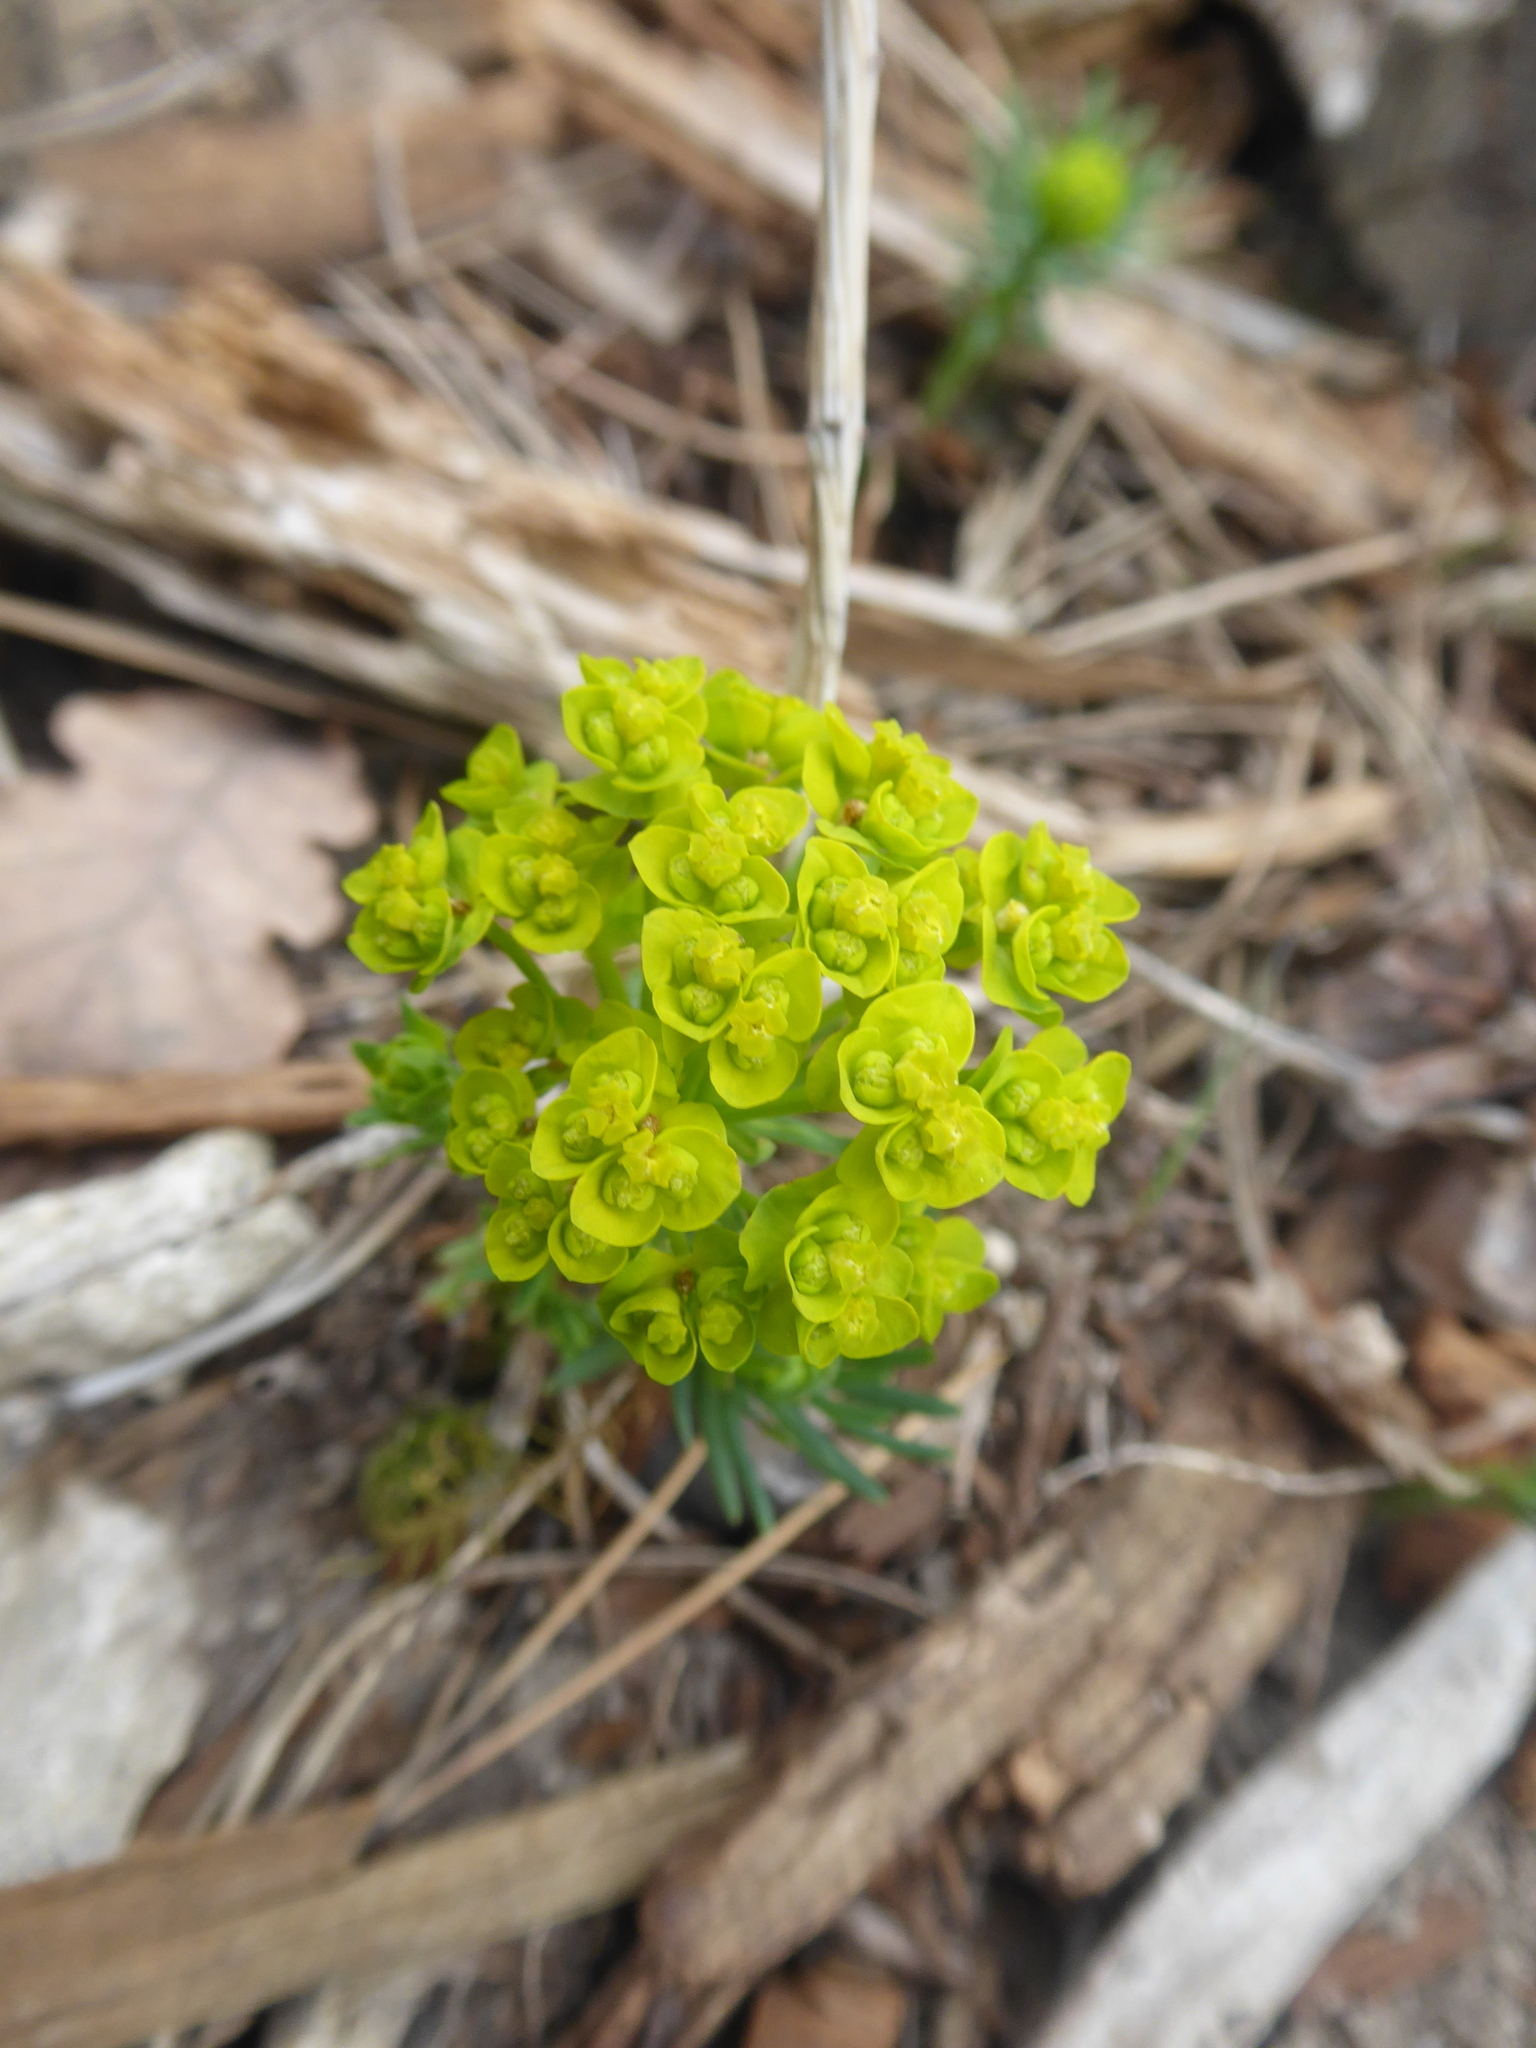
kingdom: Plantae
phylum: Tracheophyta
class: Magnoliopsida
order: Malpighiales
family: Euphorbiaceae
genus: Euphorbia
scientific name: Euphorbia cyparissias
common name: Cypress spurge
